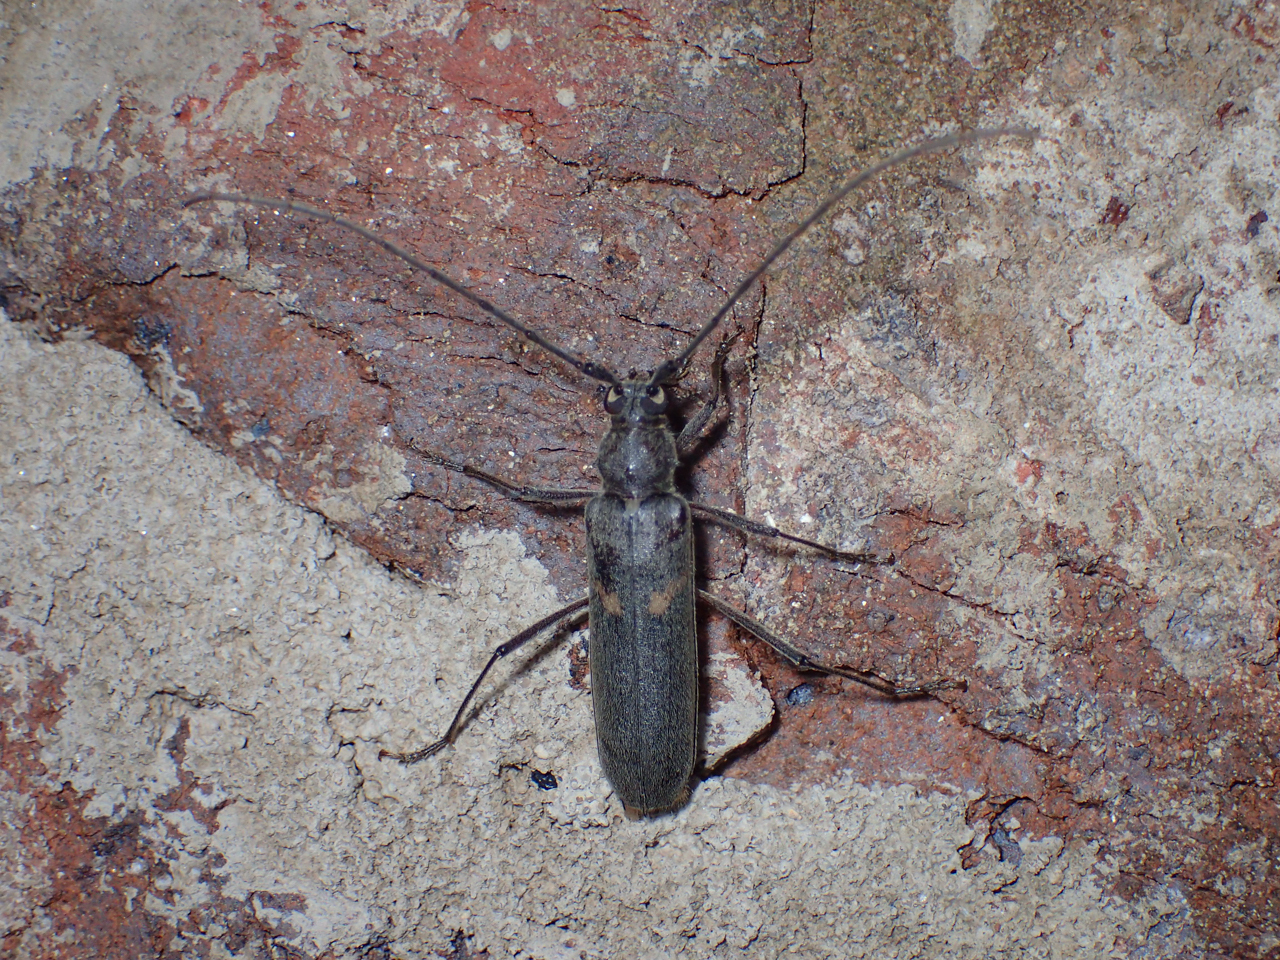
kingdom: Animalia
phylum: Arthropoda
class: Insecta
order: Coleoptera
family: Cerambycidae
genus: Knulliana
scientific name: Knulliana cincta
